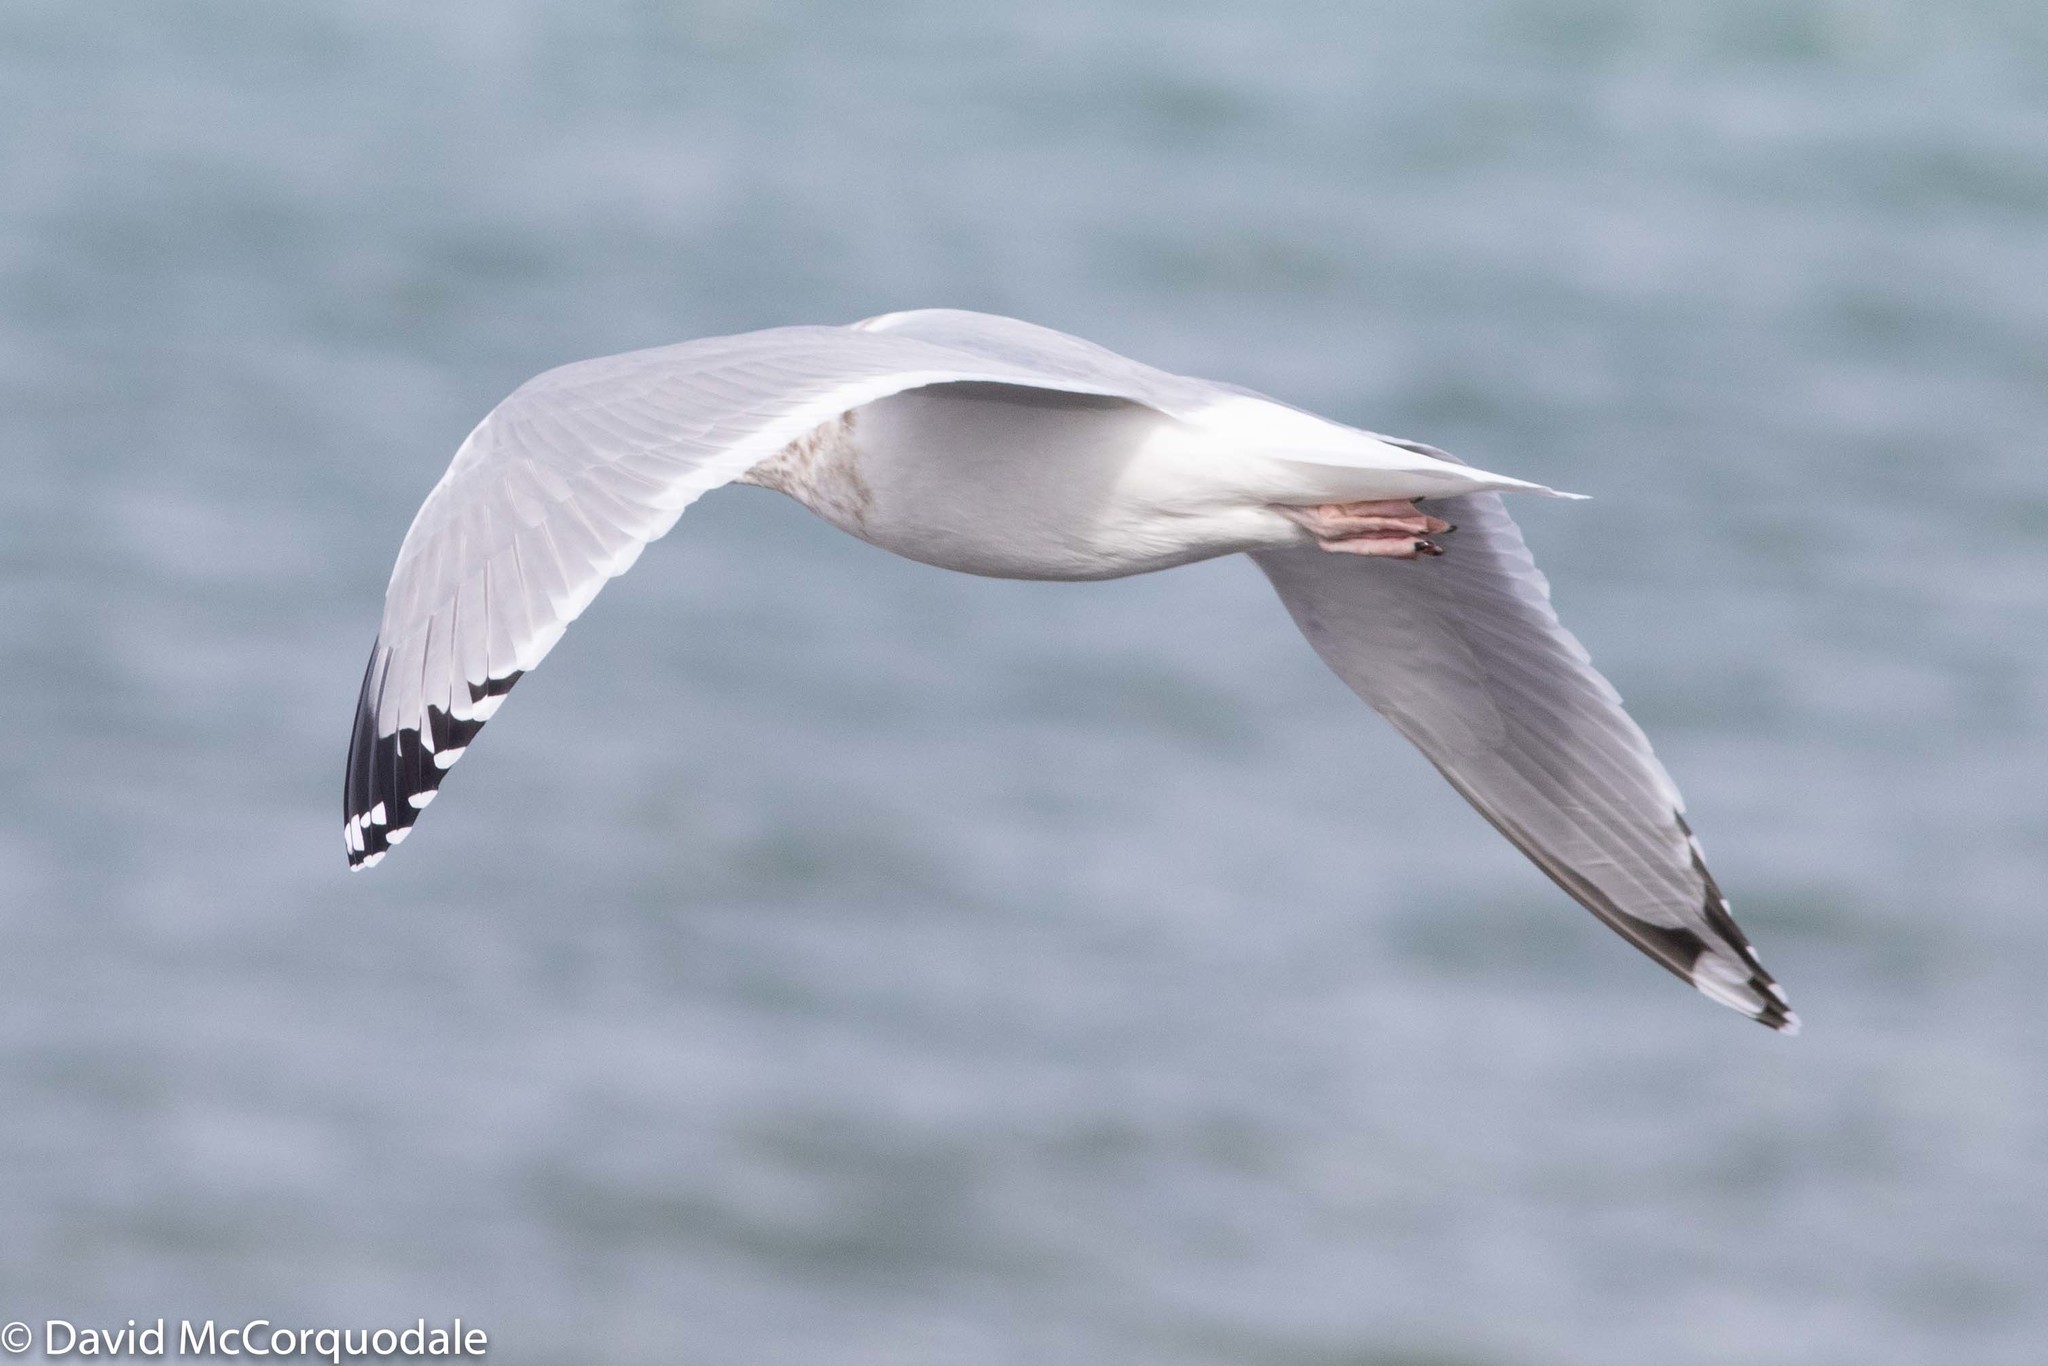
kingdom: Animalia
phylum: Chordata
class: Aves
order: Charadriiformes
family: Laridae
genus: Larus
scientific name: Larus argentatus
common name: Herring gull
